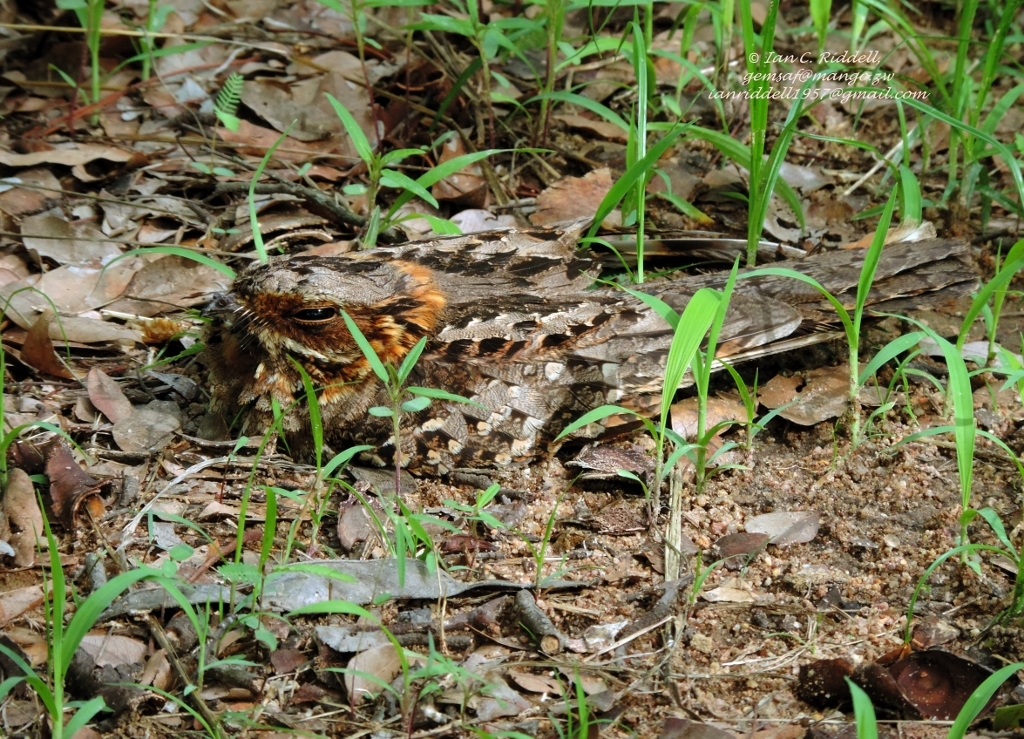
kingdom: Animalia
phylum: Chordata
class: Aves
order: Caprimulgiformes
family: Caprimulgidae
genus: Caprimulgus
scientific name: Caprimulgus pectoralis
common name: Fiery-necked nightjar
